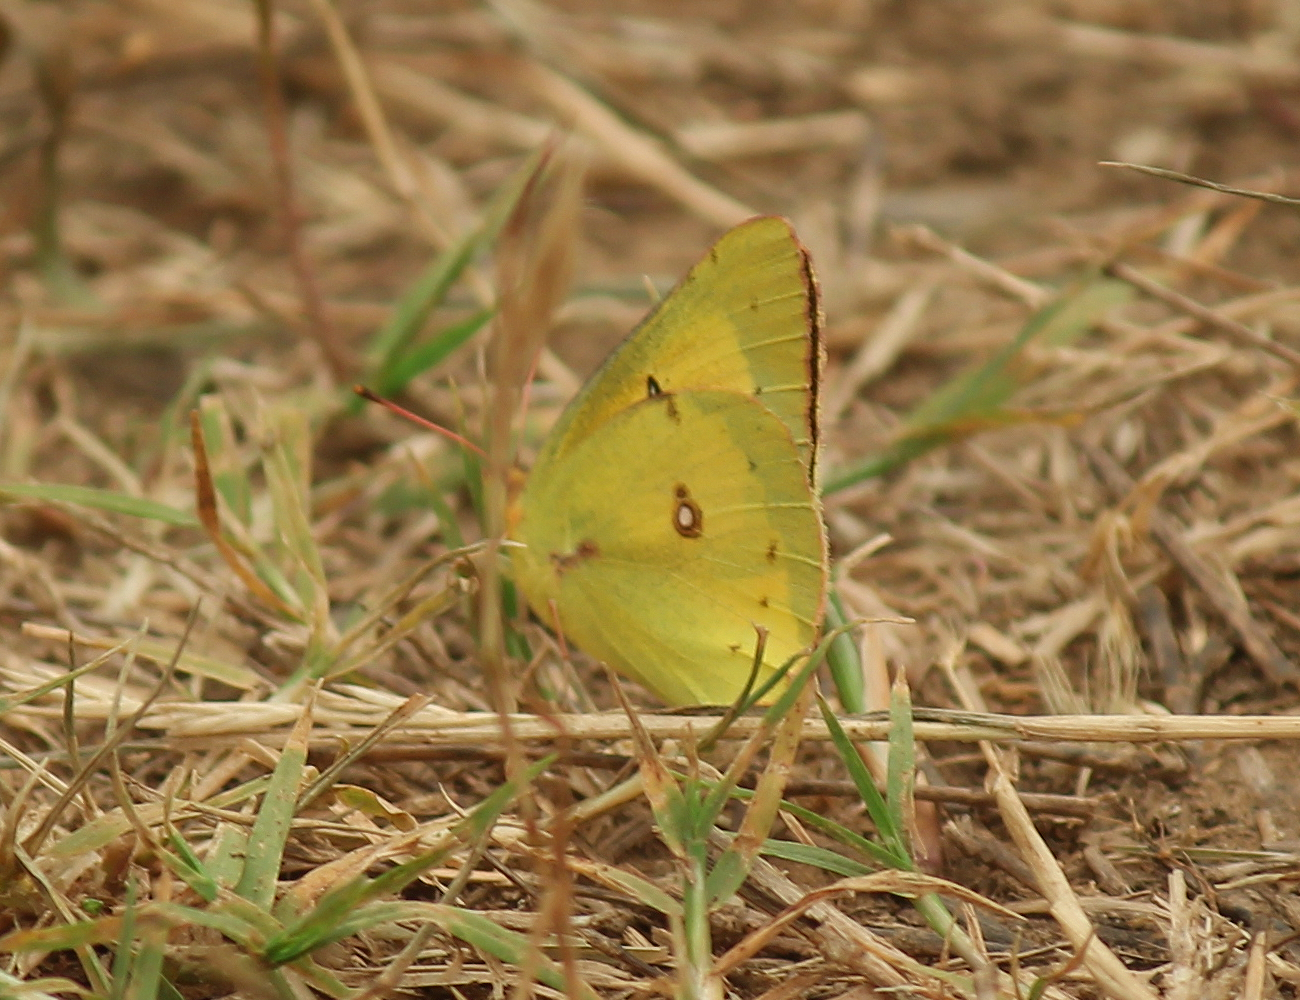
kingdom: Animalia
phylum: Arthropoda
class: Insecta
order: Lepidoptera
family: Pieridae
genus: Colias
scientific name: Colias eurytheme
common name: Alfalfa butterfly
